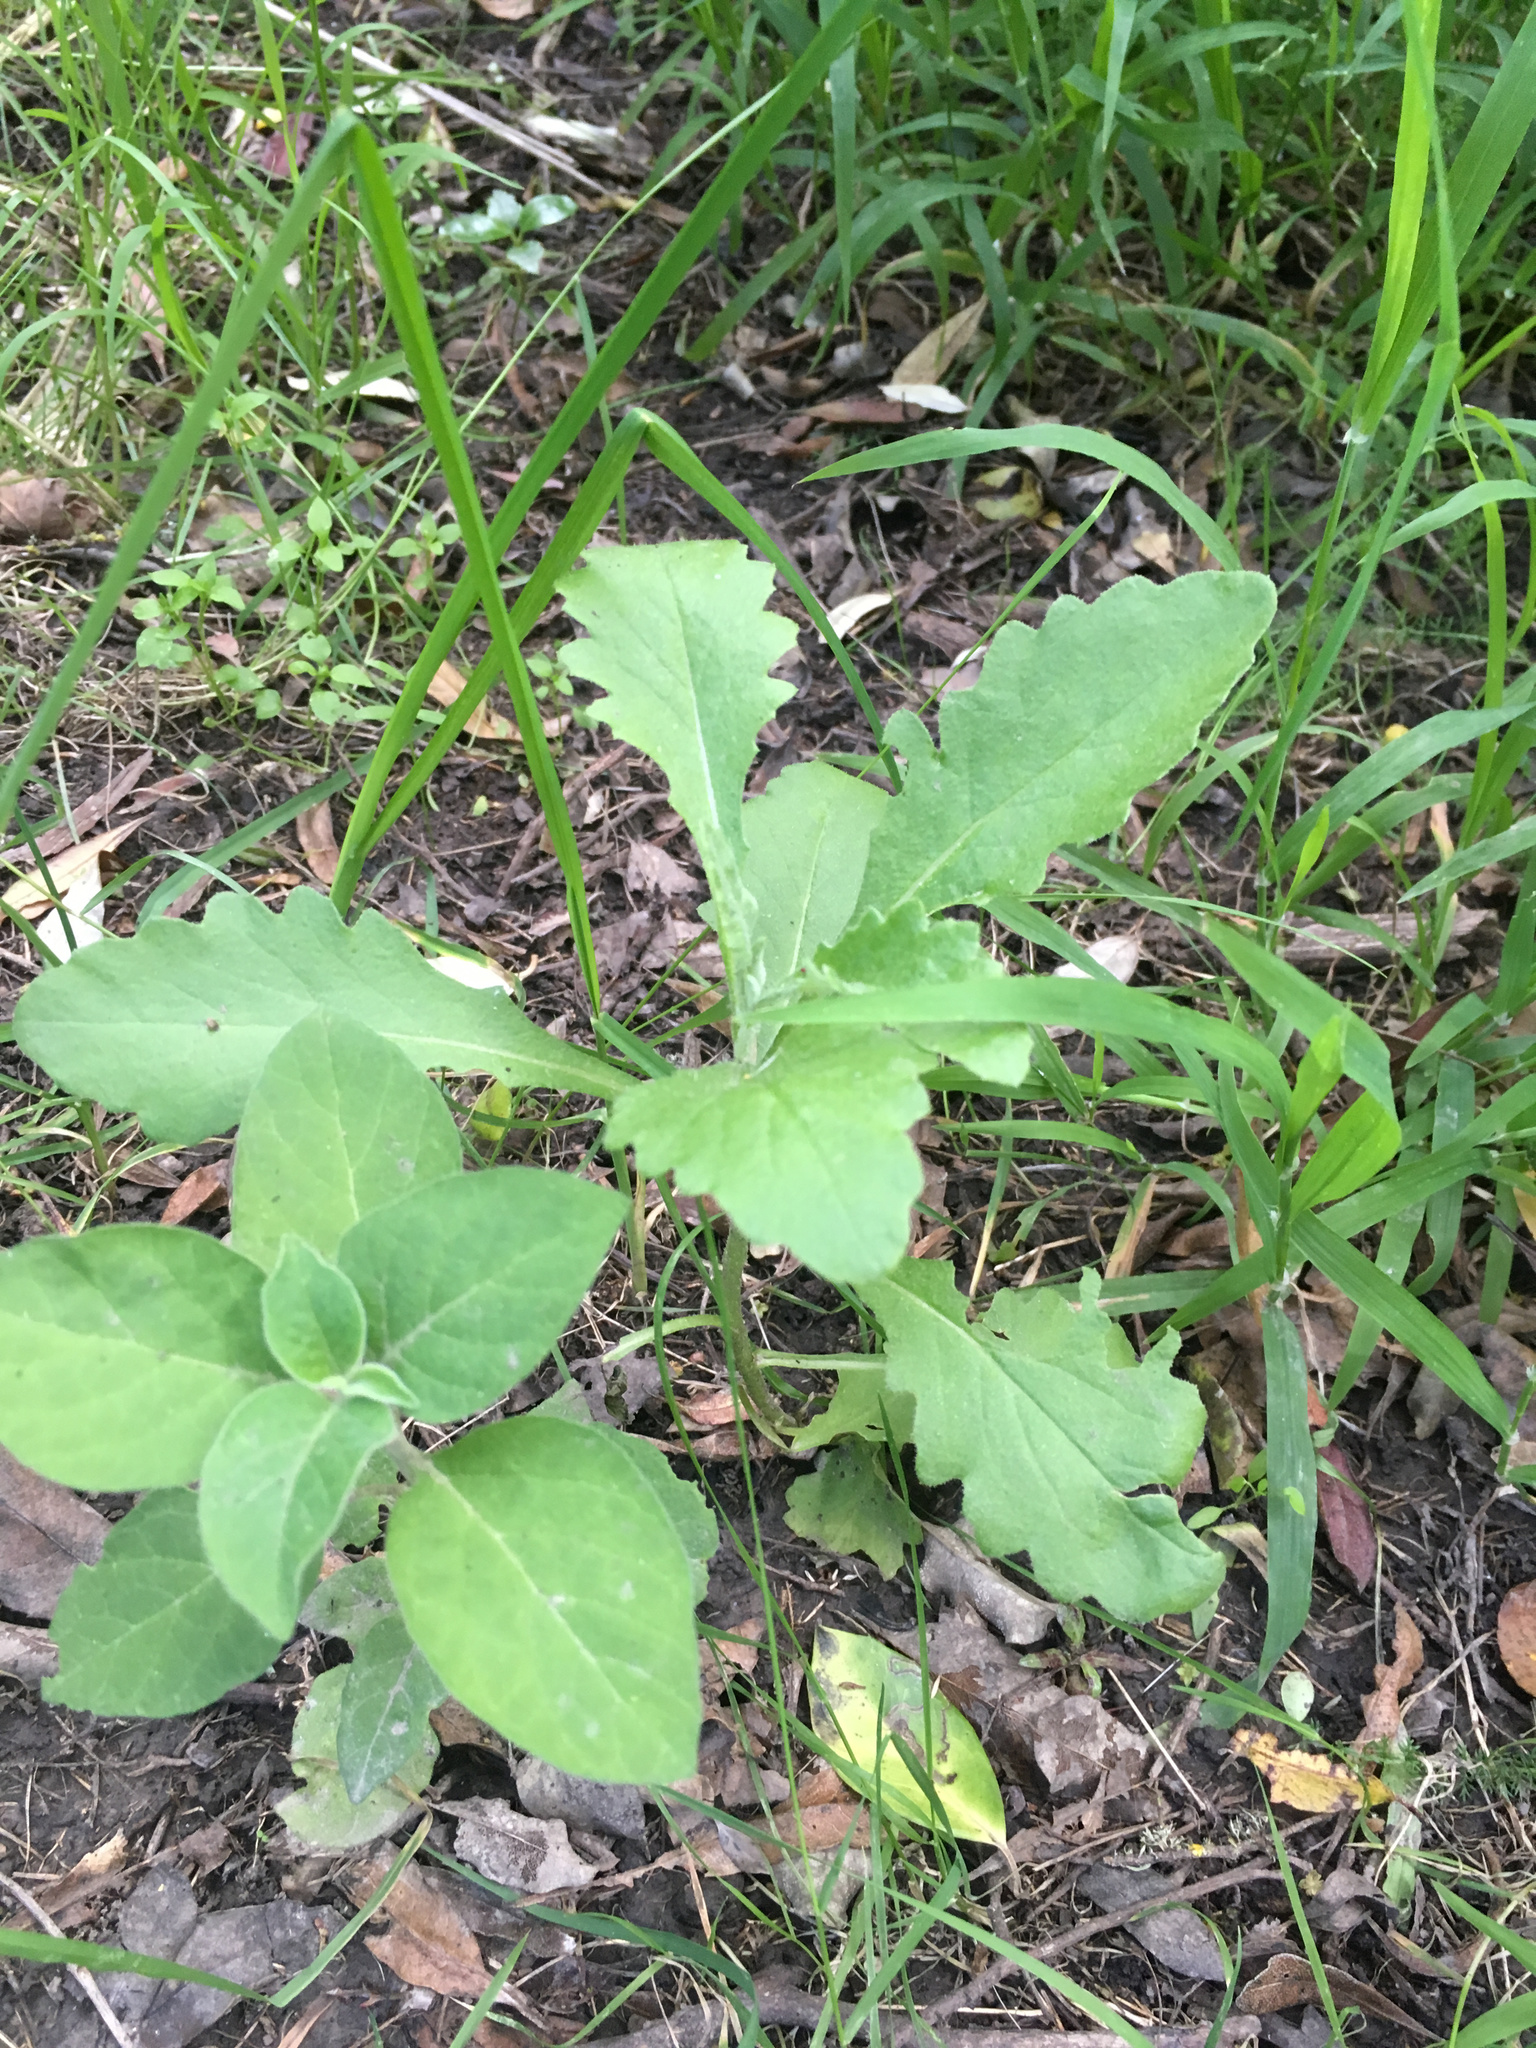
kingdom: Plantae
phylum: Tracheophyta
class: Magnoliopsida
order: Asterales
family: Asteraceae
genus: Senecio
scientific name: Senecio glomeratus
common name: Cutleaf burnweed
